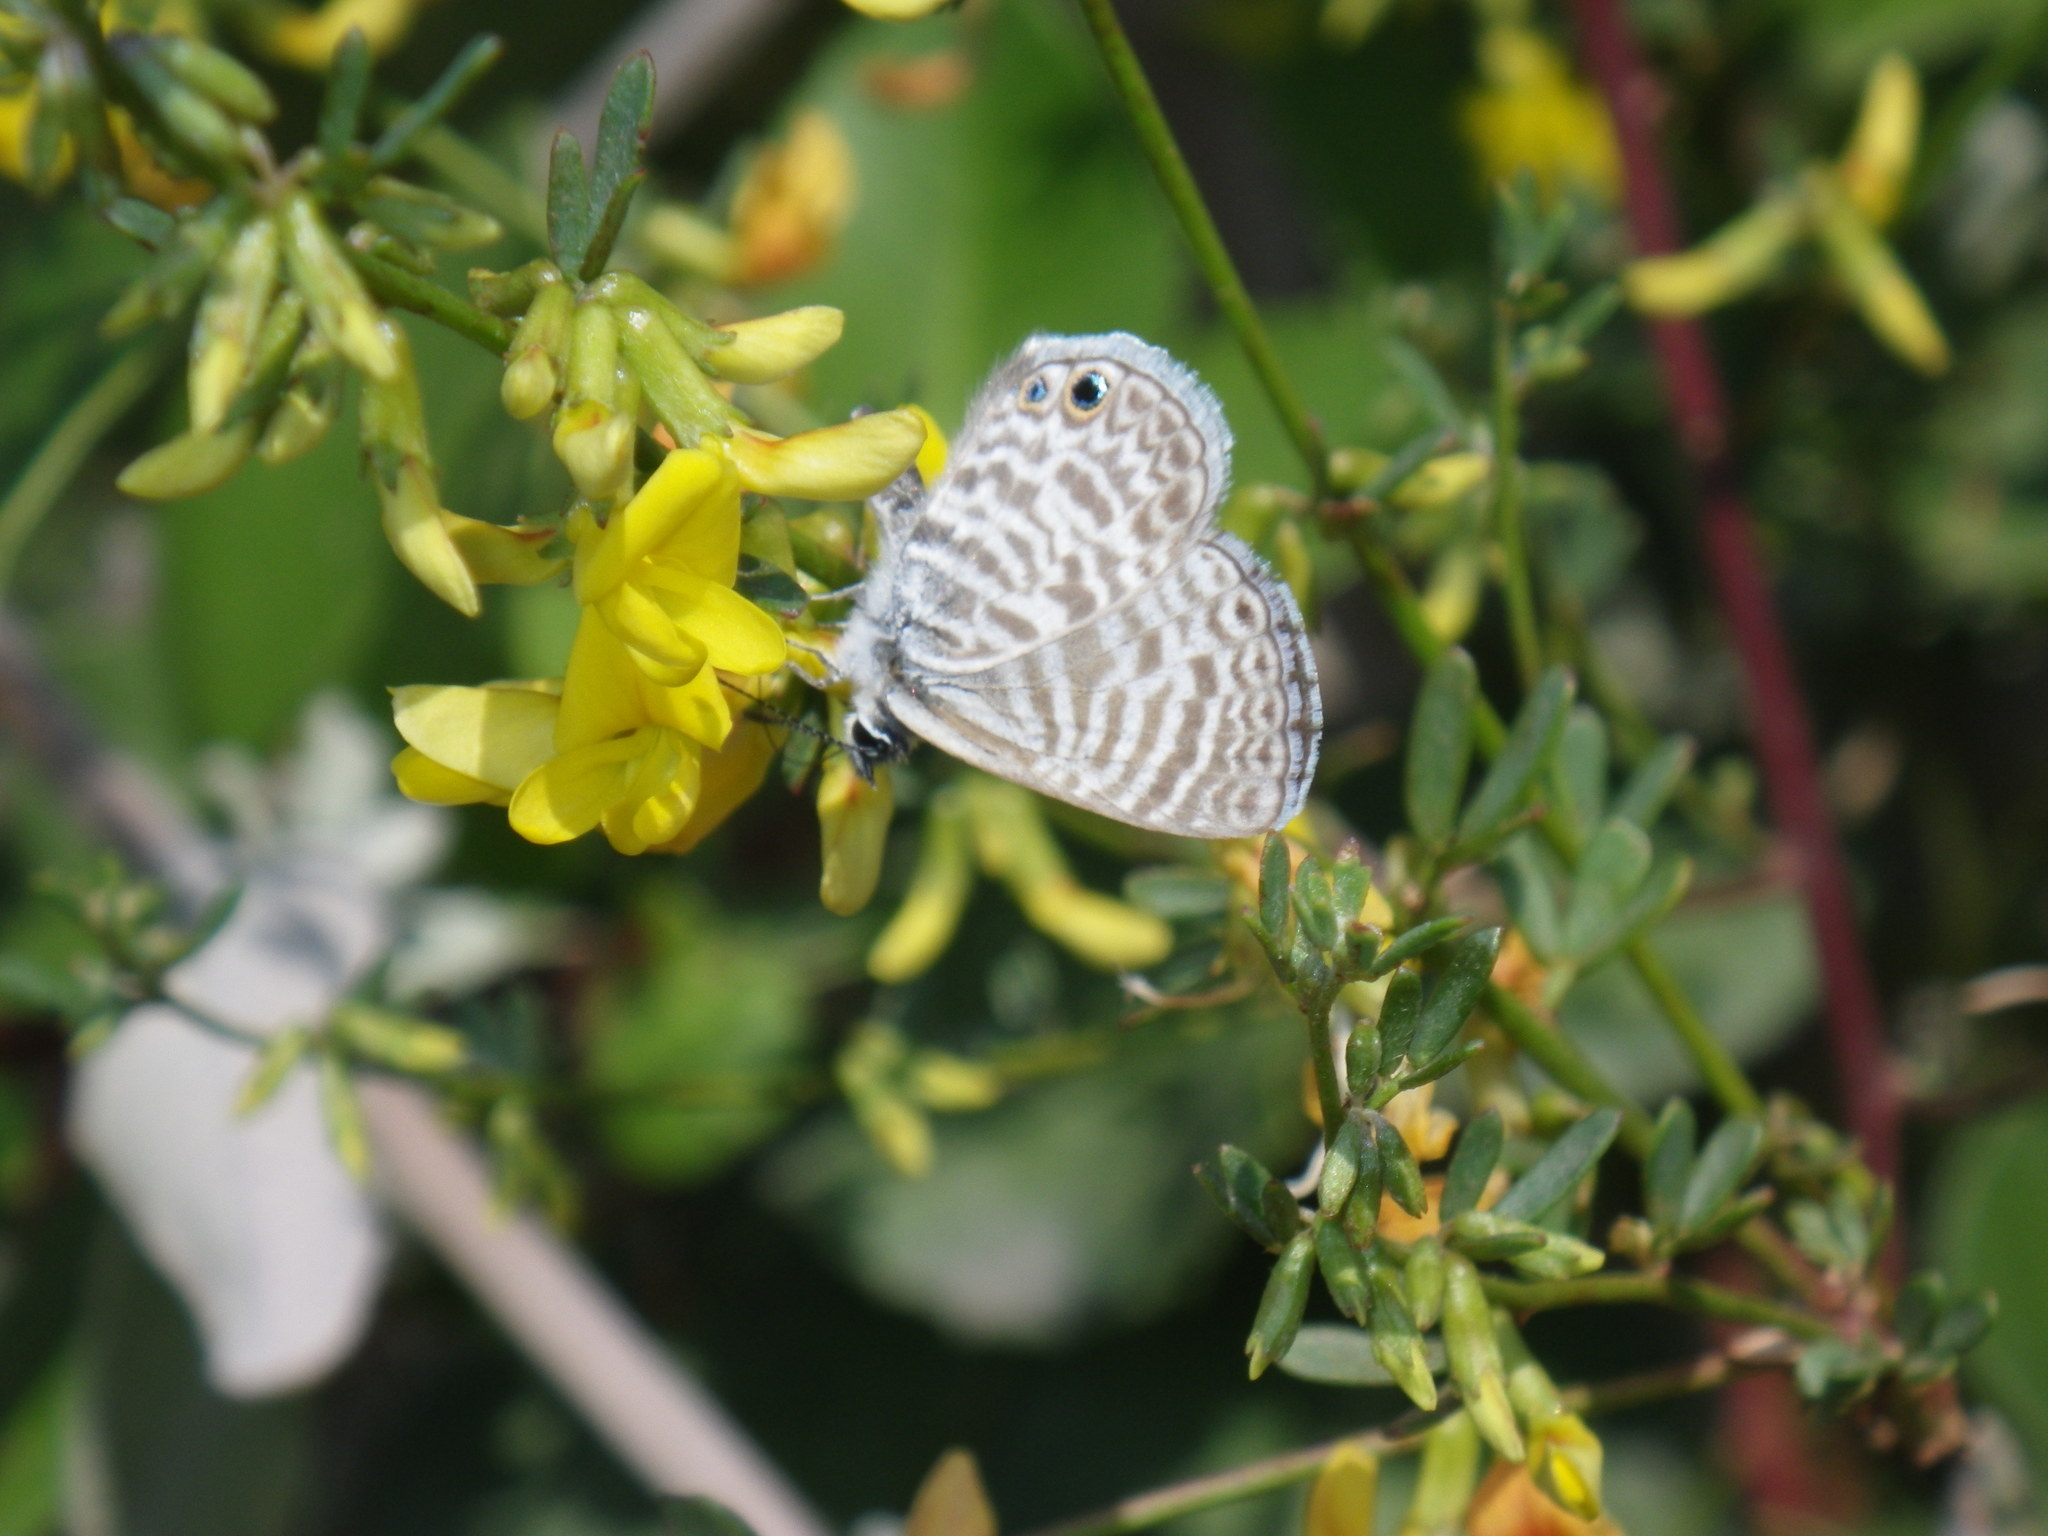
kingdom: Animalia
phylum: Arthropoda
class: Insecta
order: Lepidoptera
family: Lycaenidae
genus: Leptotes
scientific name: Leptotes marina
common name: Marine blue
